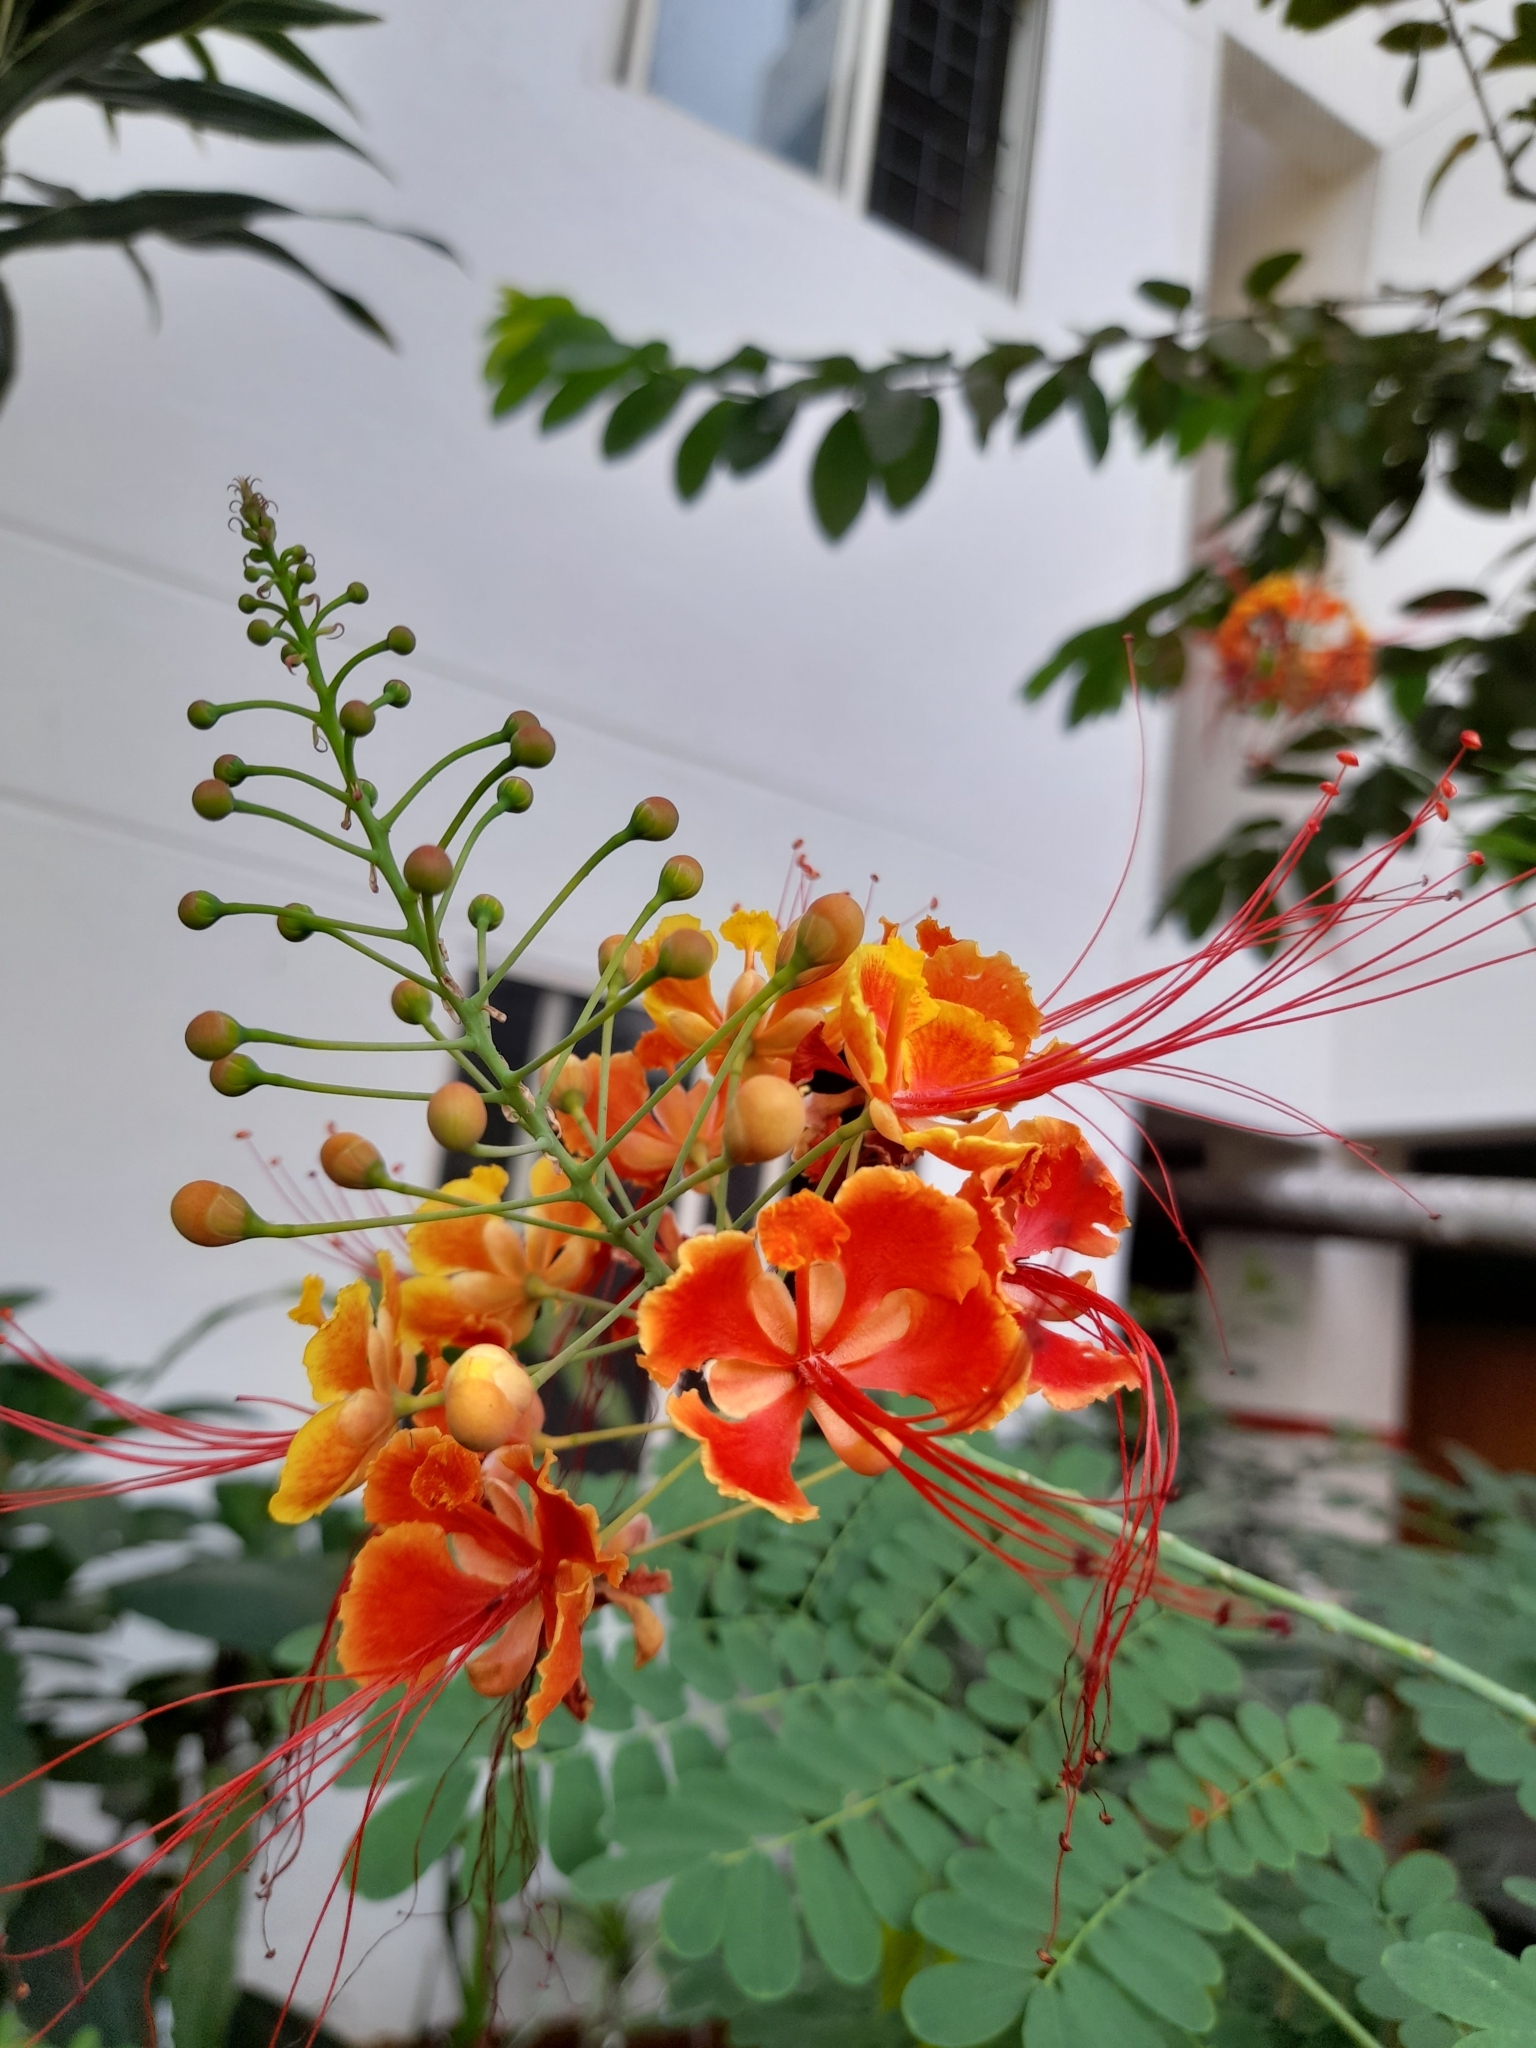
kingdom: Plantae
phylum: Tracheophyta
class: Magnoliopsida
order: Fabales
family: Fabaceae
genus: Caesalpinia
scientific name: Caesalpinia pulcherrima
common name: Pride-of-barbados
